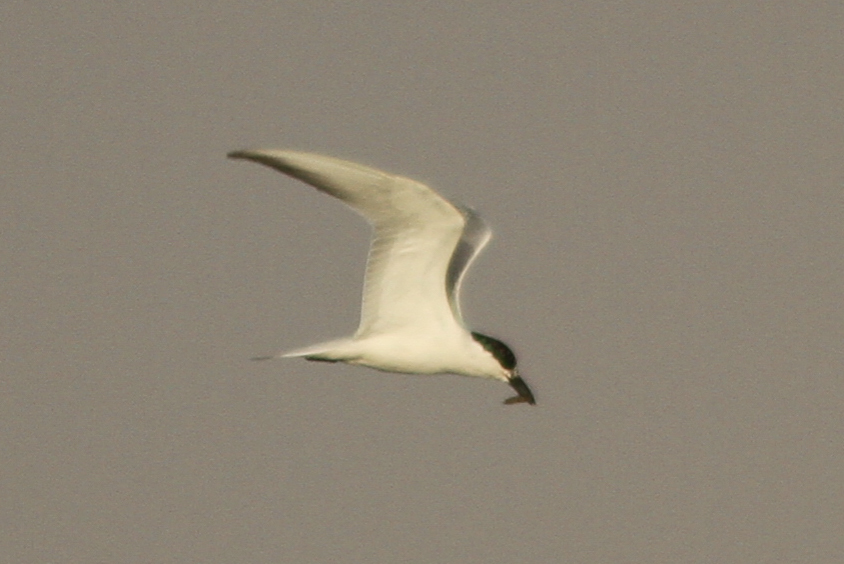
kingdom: Animalia
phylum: Chordata
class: Aves
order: Charadriiformes
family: Laridae
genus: Gelochelidon
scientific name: Gelochelidon nilotica
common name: Gull-billed tern
